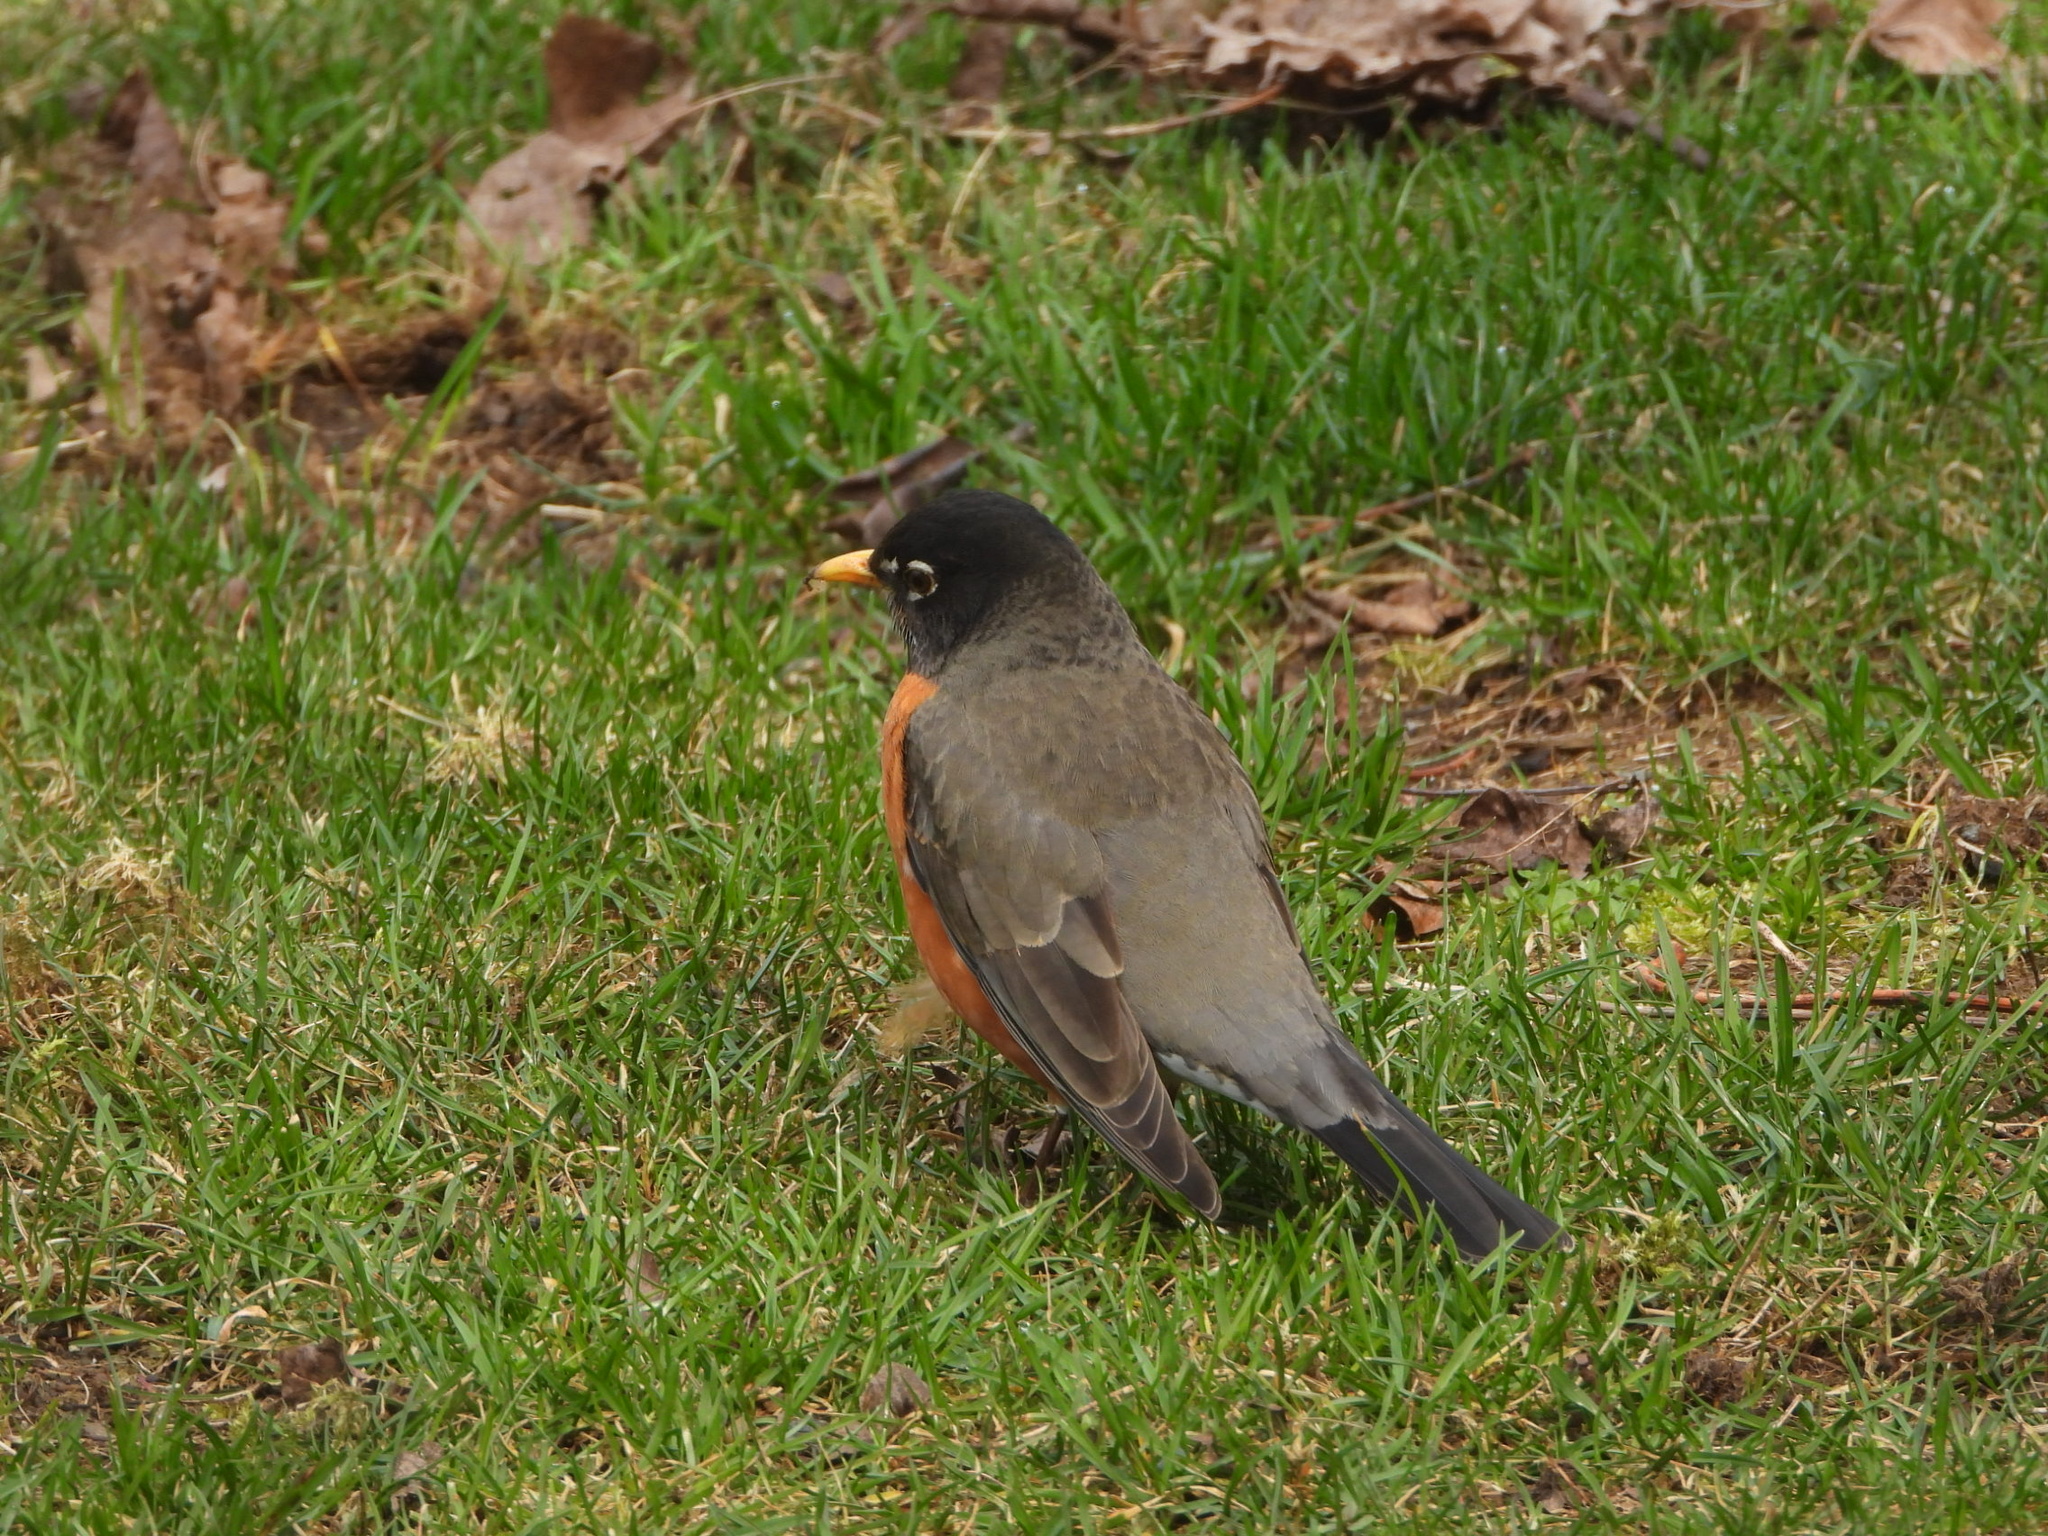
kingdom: Animalia
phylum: Chordata
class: Aves
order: Passeriformes
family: Turdidae
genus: Turdus
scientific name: Turdus migratorius
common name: American robin
